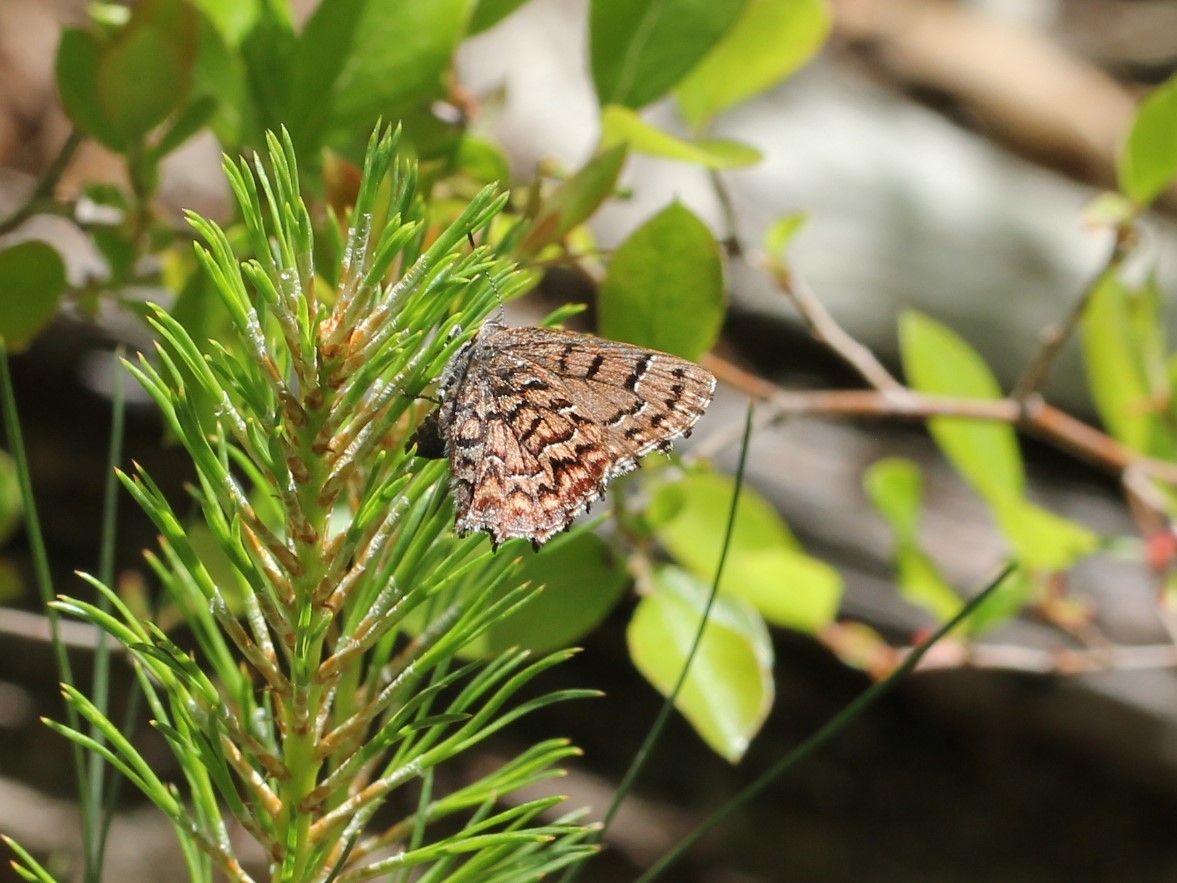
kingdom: Animalia
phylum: Arthropoda
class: Insecta
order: Lepidoptera
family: Lycaenidae
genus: Incisalia
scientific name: Incisalia niphon
